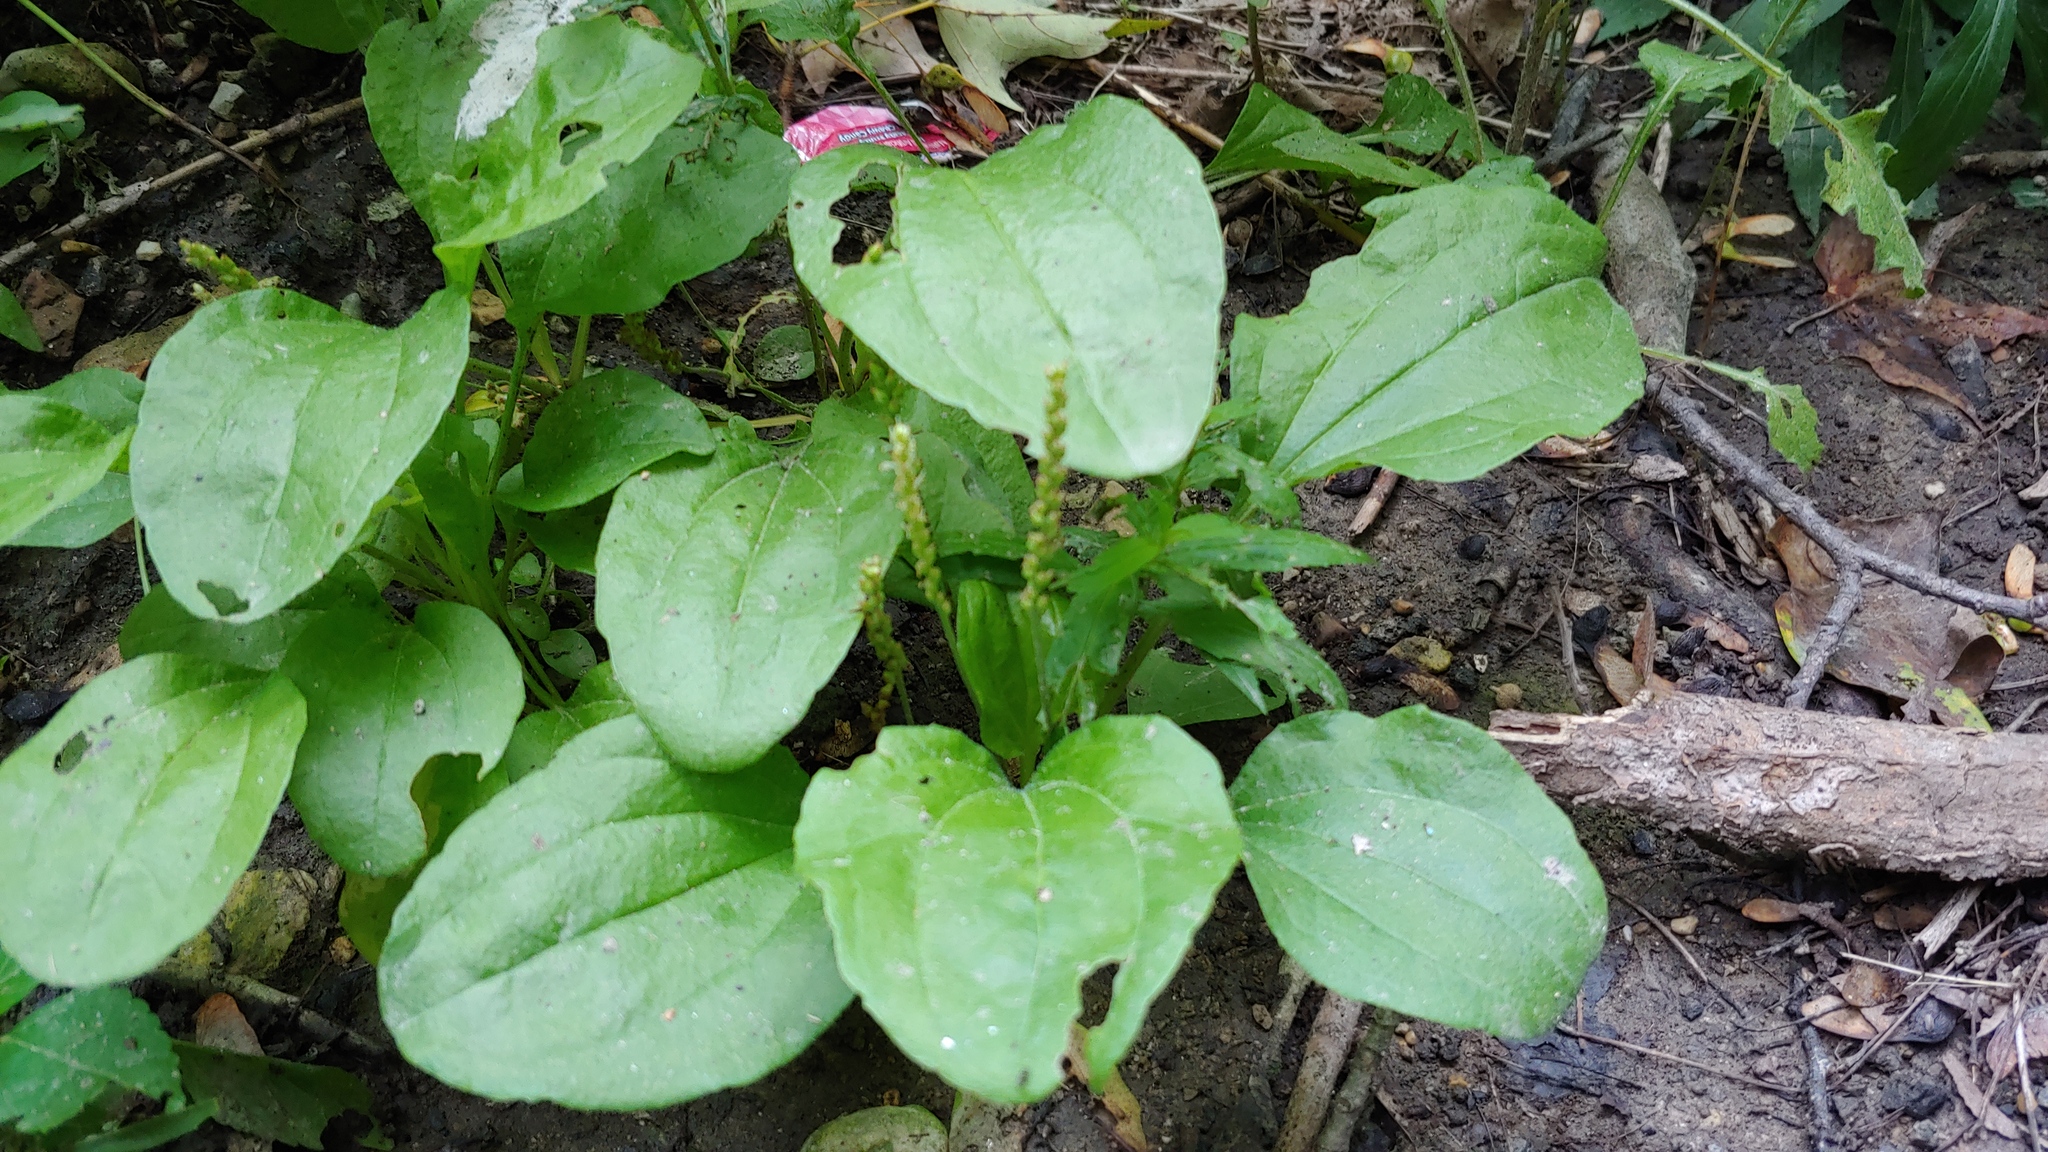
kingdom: Plantae
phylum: Tracheophyta
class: Magnoliopsida
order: Lamiales
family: Plantaginaceae
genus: Plantago
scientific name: Plantago major
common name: Common plantain
